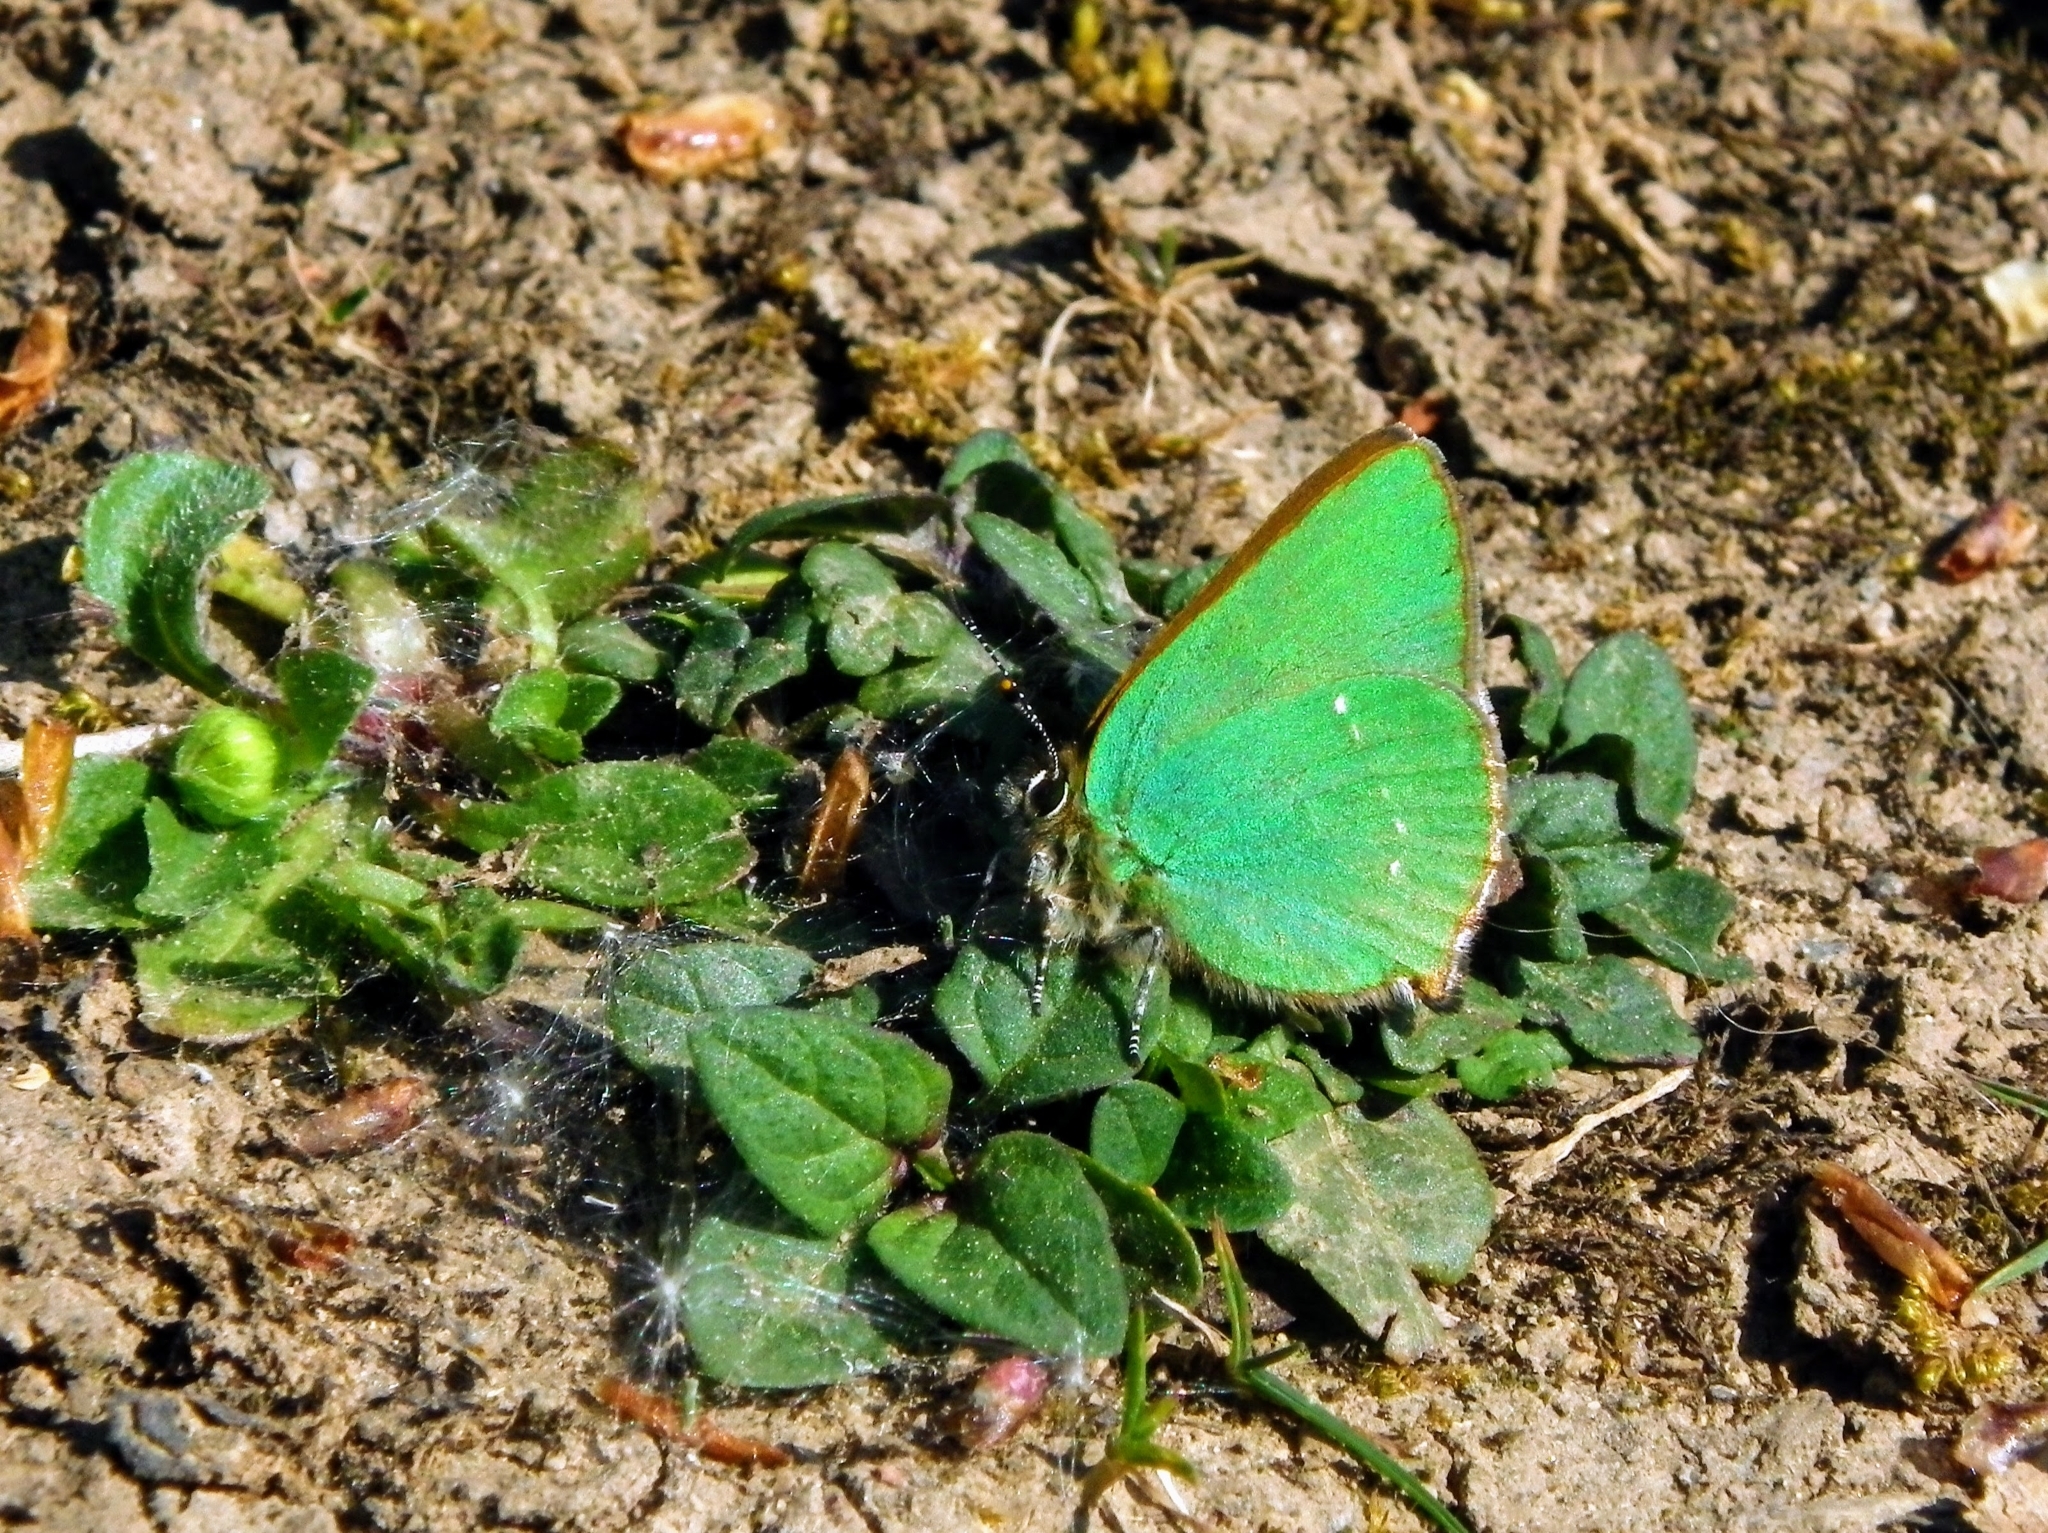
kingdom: Animalia
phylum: Arthropoda
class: Insecta
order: Lepidoptera
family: Lycaenidae
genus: Callophrys
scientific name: Callophrys rubi
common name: Green hairstreak
